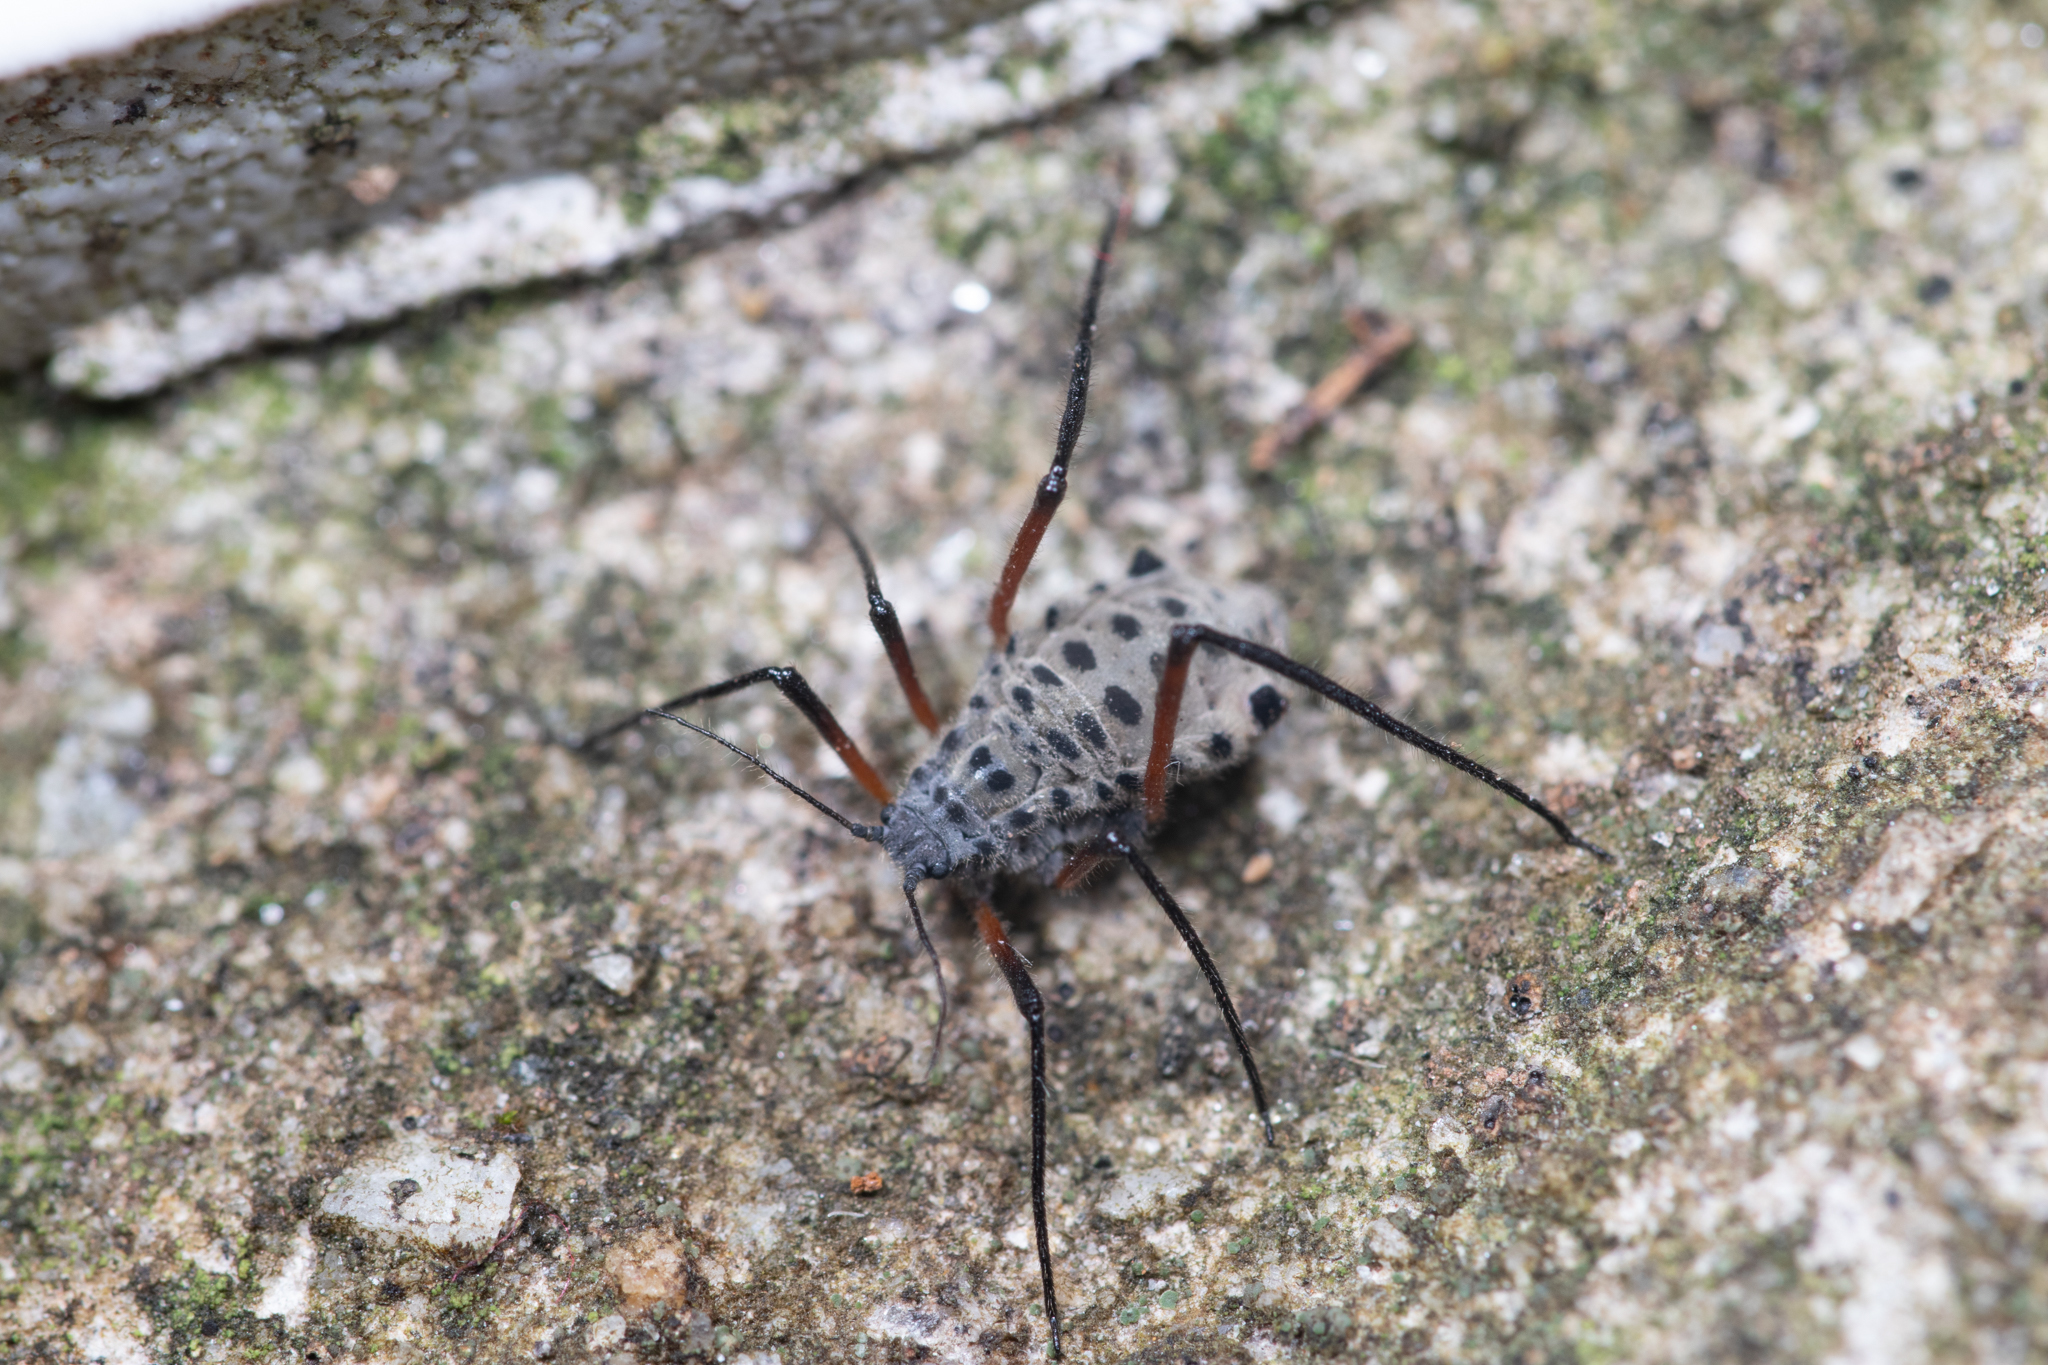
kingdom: Animalia
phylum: Arthropoda
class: Insecta
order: Hemiptera
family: Aphididae
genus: Longistigma
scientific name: Longistigma caryae
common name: Giant bark aphid
